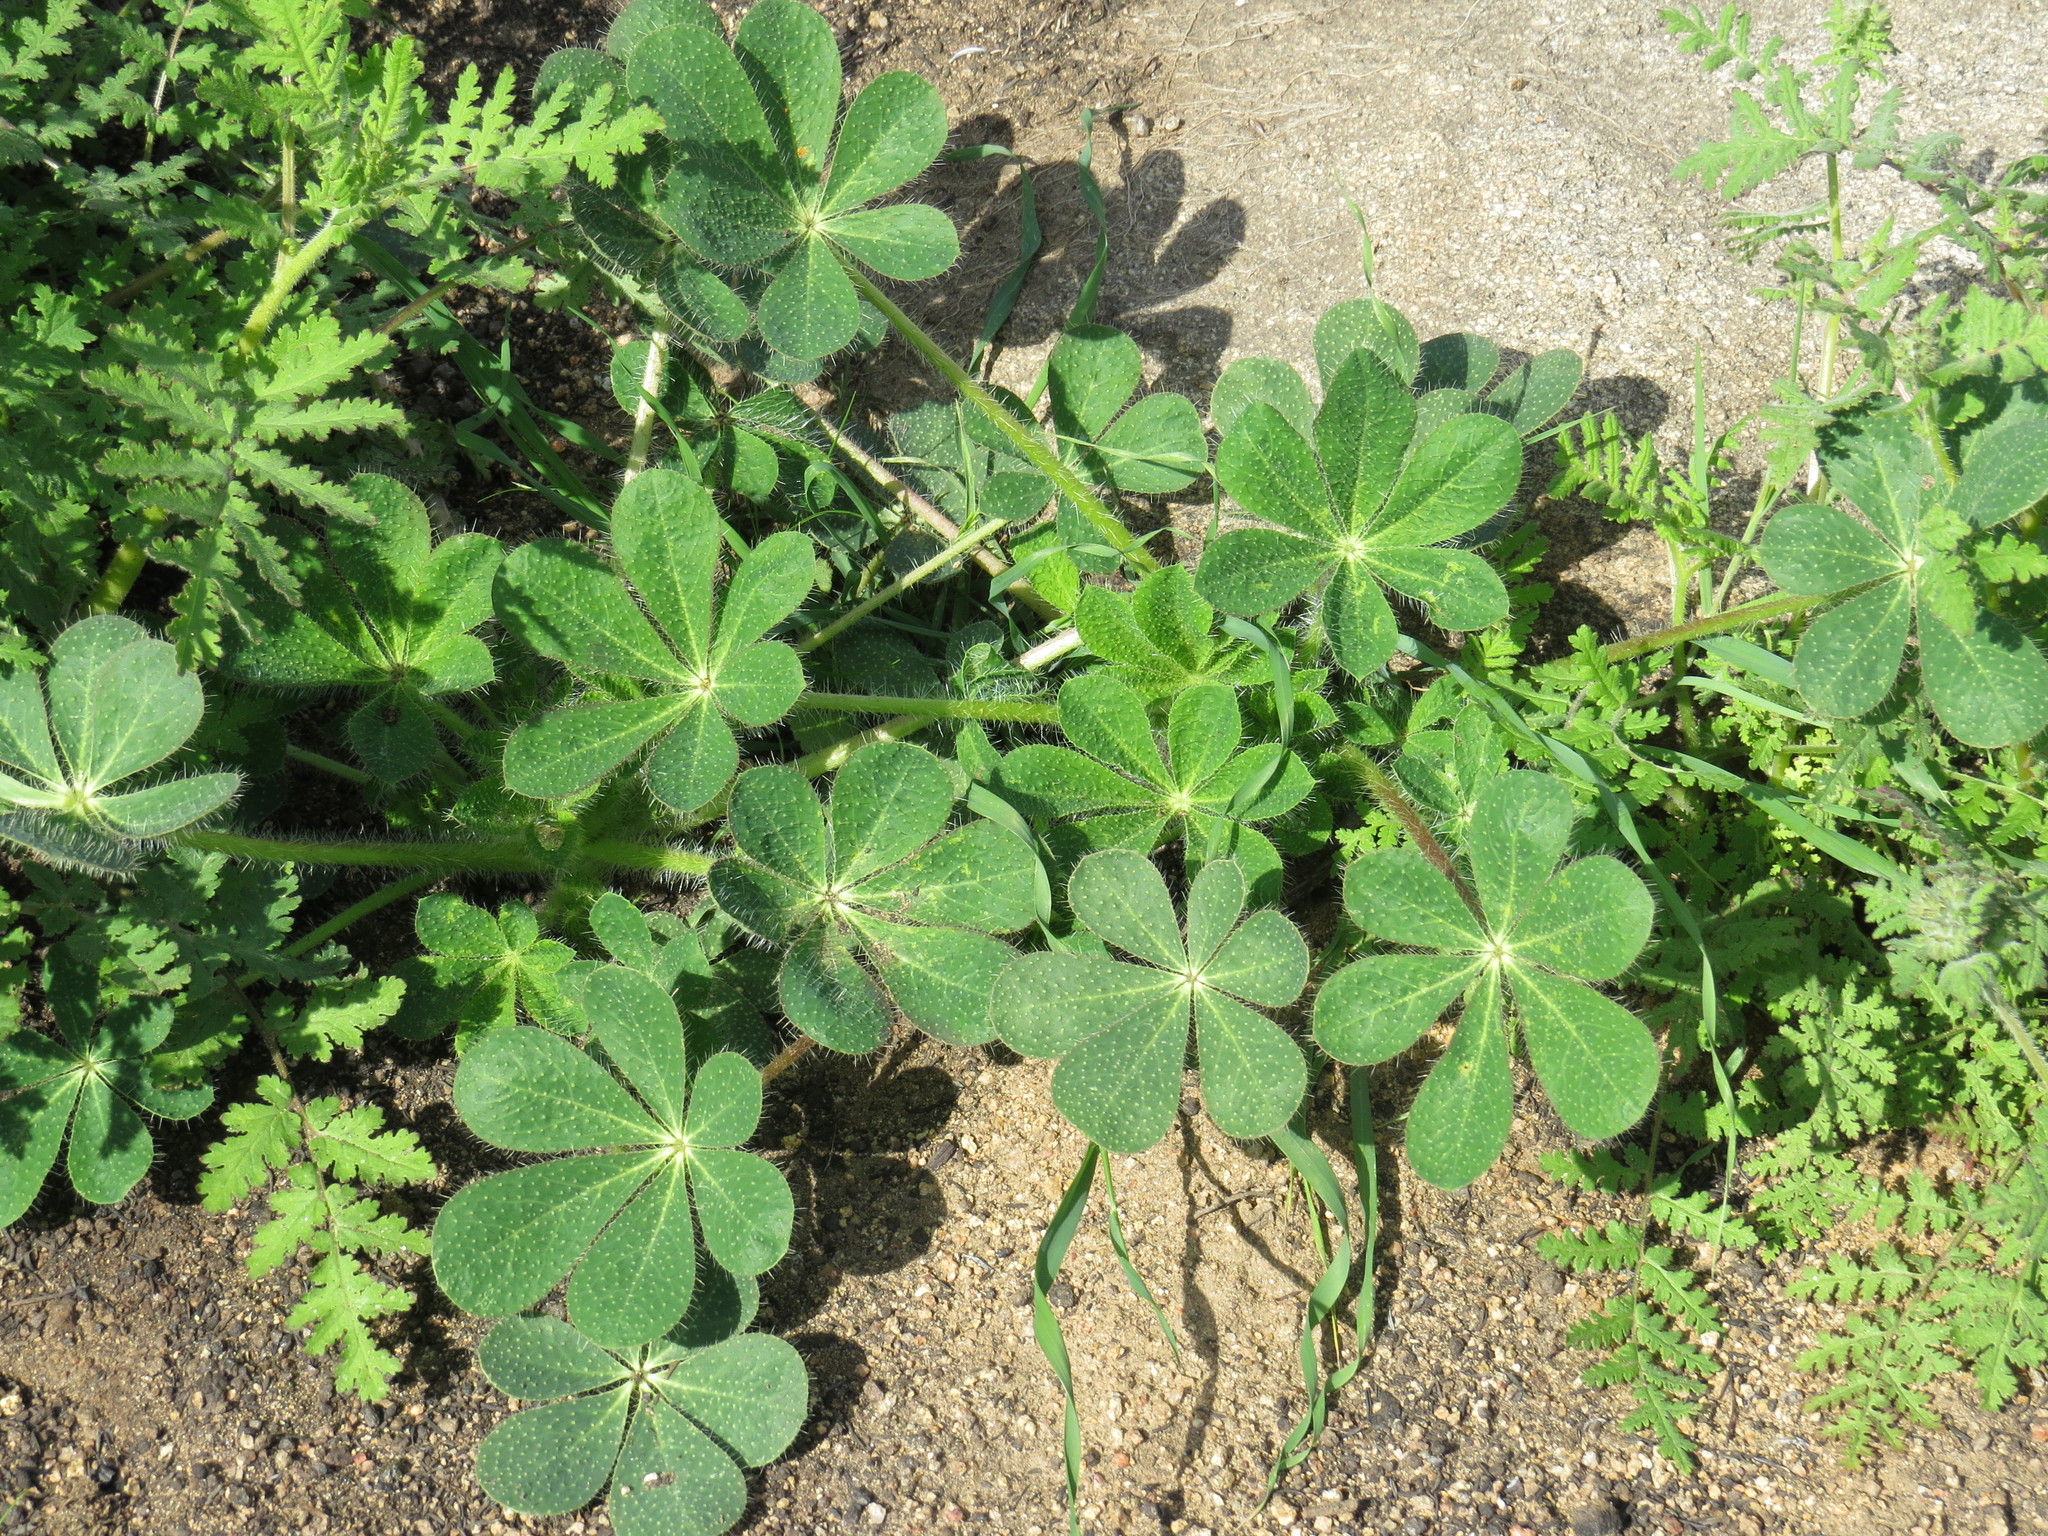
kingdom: Plantae
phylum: Tracheophyta
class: Magnoliopsida
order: Fabales
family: Fabaceae
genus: Lupinus
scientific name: Lupinus hirsutissimus
